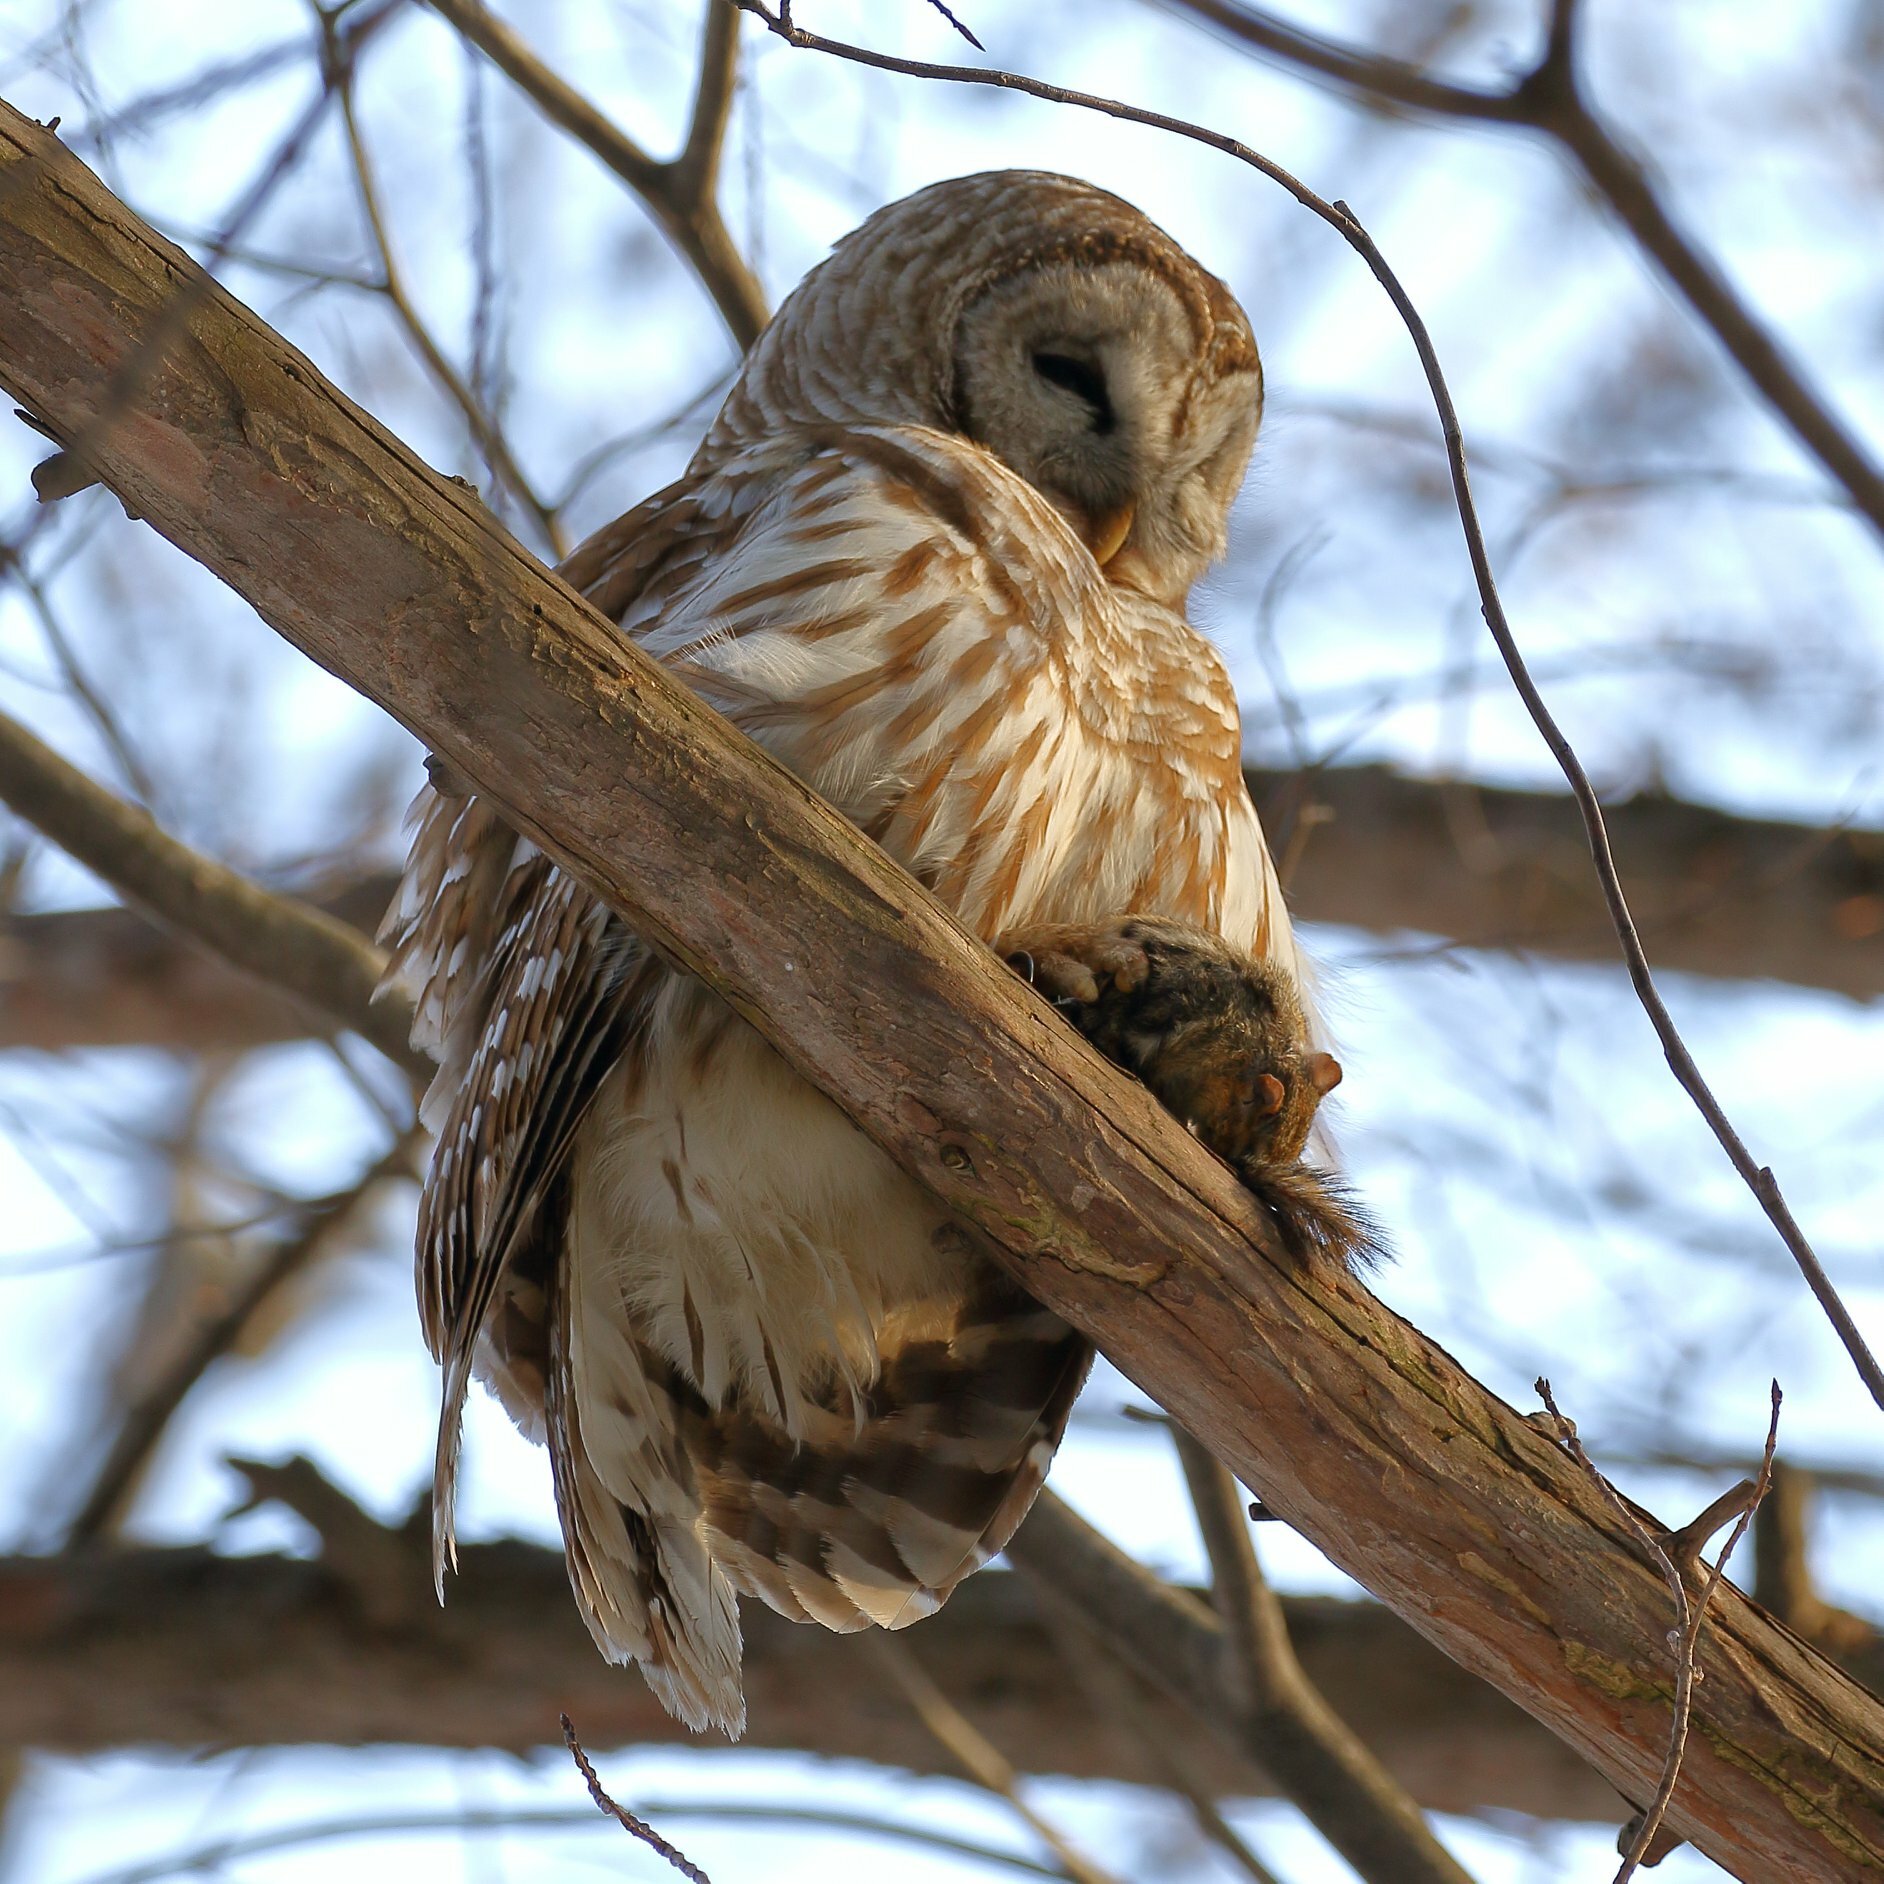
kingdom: Animalia
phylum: Chordata
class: Aves
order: Strigiformes
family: Strigidae
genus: Strix
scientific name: Strix varia
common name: Barred owl
